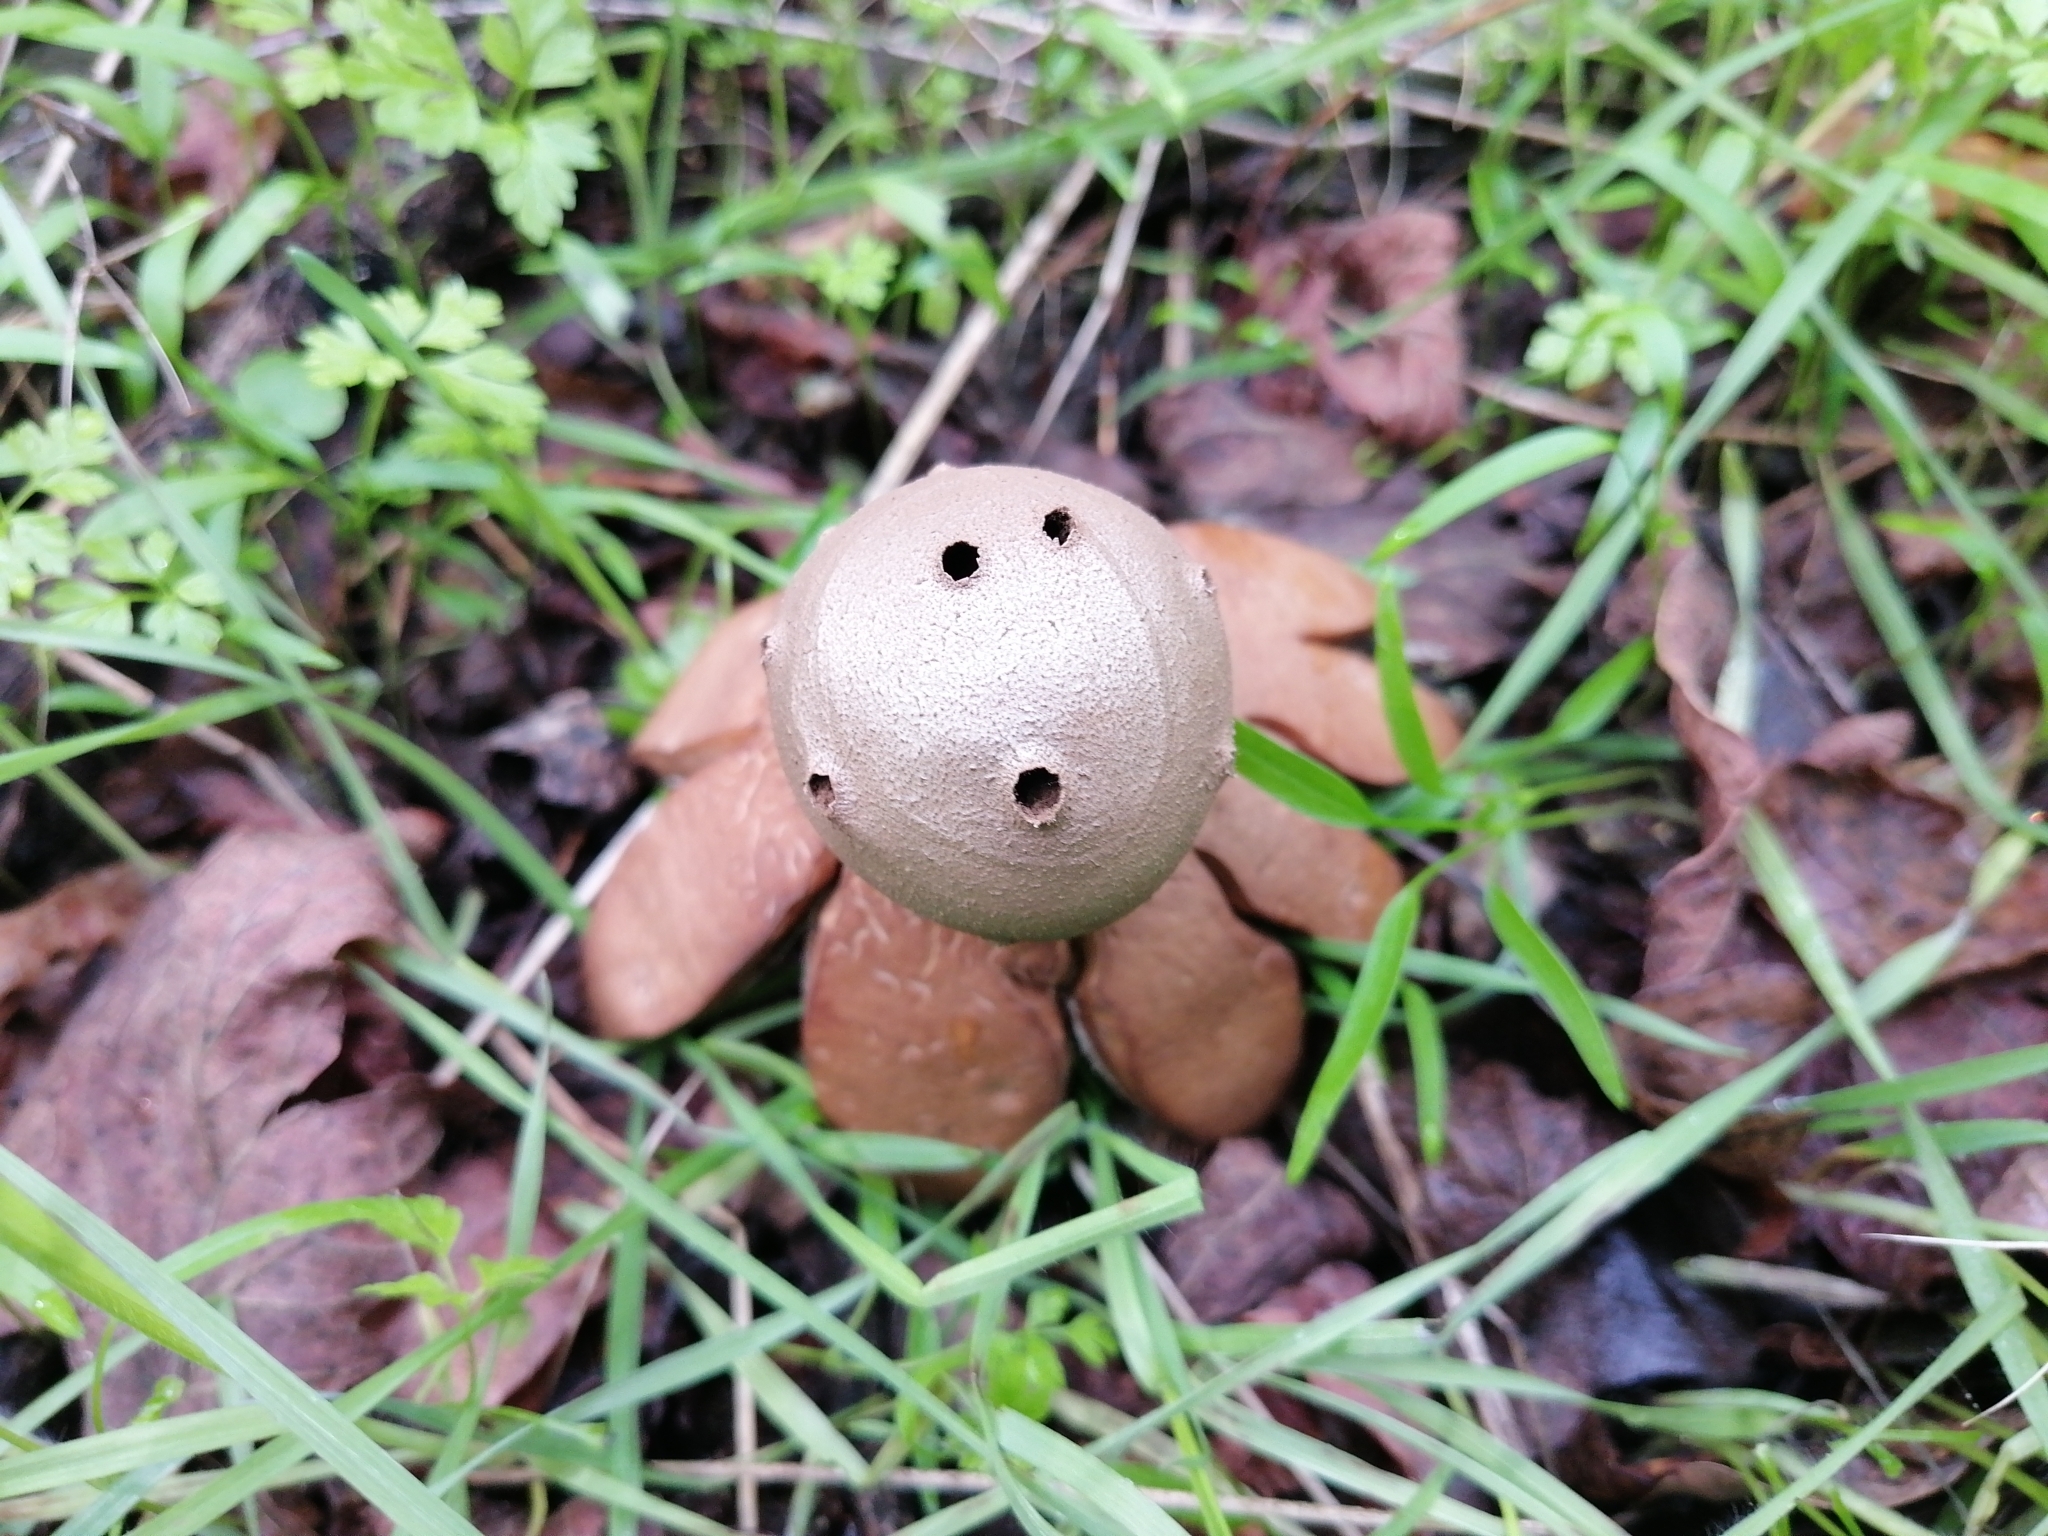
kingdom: Fungi
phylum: Basidiomycota
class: Agaricomycetes
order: Geastrales
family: Geastraceae
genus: Myriostoma
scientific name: Myriostoma coliforme
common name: Pepper pot
